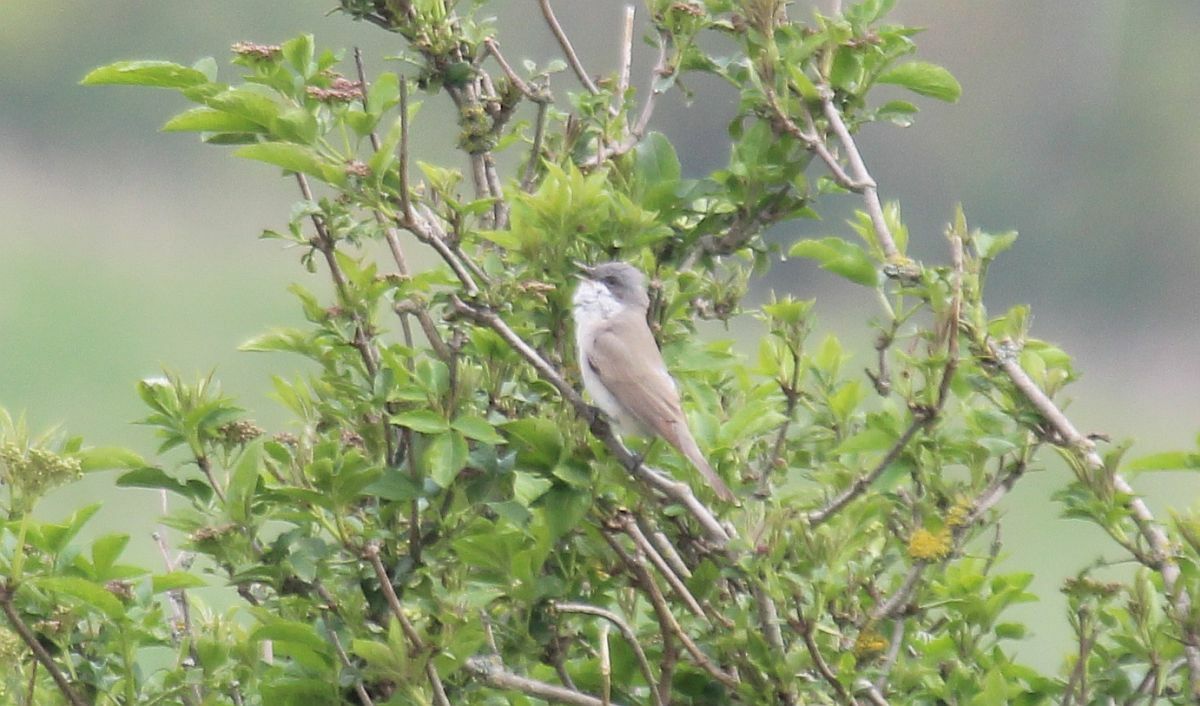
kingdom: Animalia
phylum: Chordata
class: Aves
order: Passeriformes
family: Sylviidae
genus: Sylvia
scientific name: Sylvia curruca
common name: Lesser whitethroat
